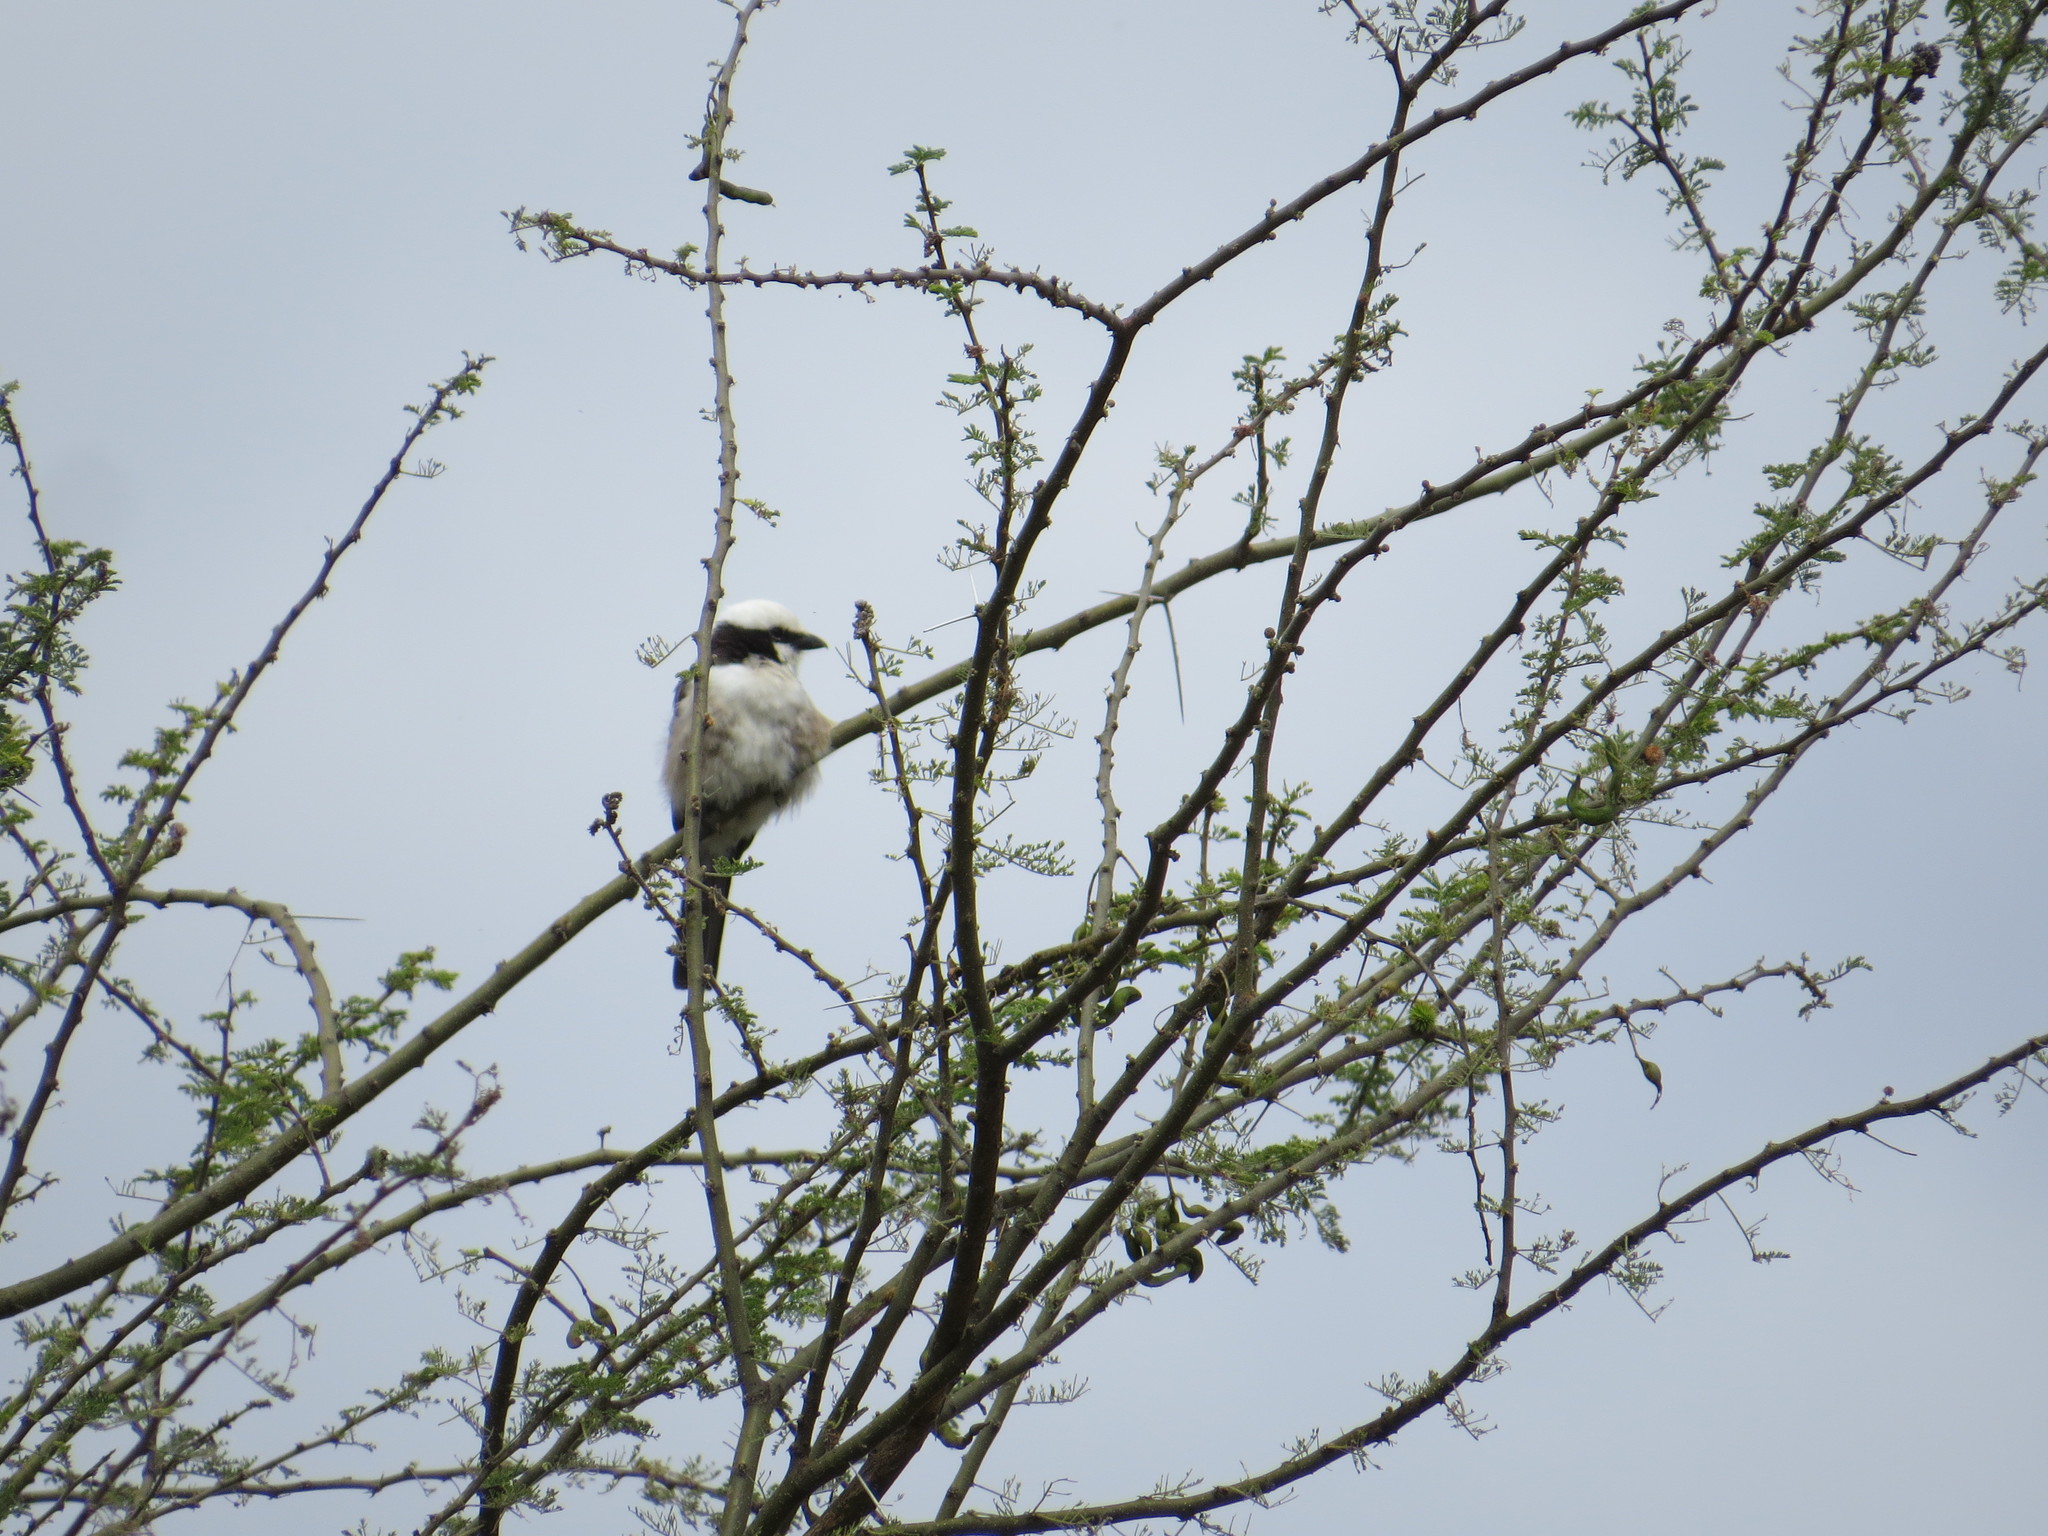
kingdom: Animalia
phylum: Chordata
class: Aves
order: Passeriformes
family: Laniidae
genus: Eurocephalus
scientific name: Eurocephalus ruppelli
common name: Northern white-crowned shrike
